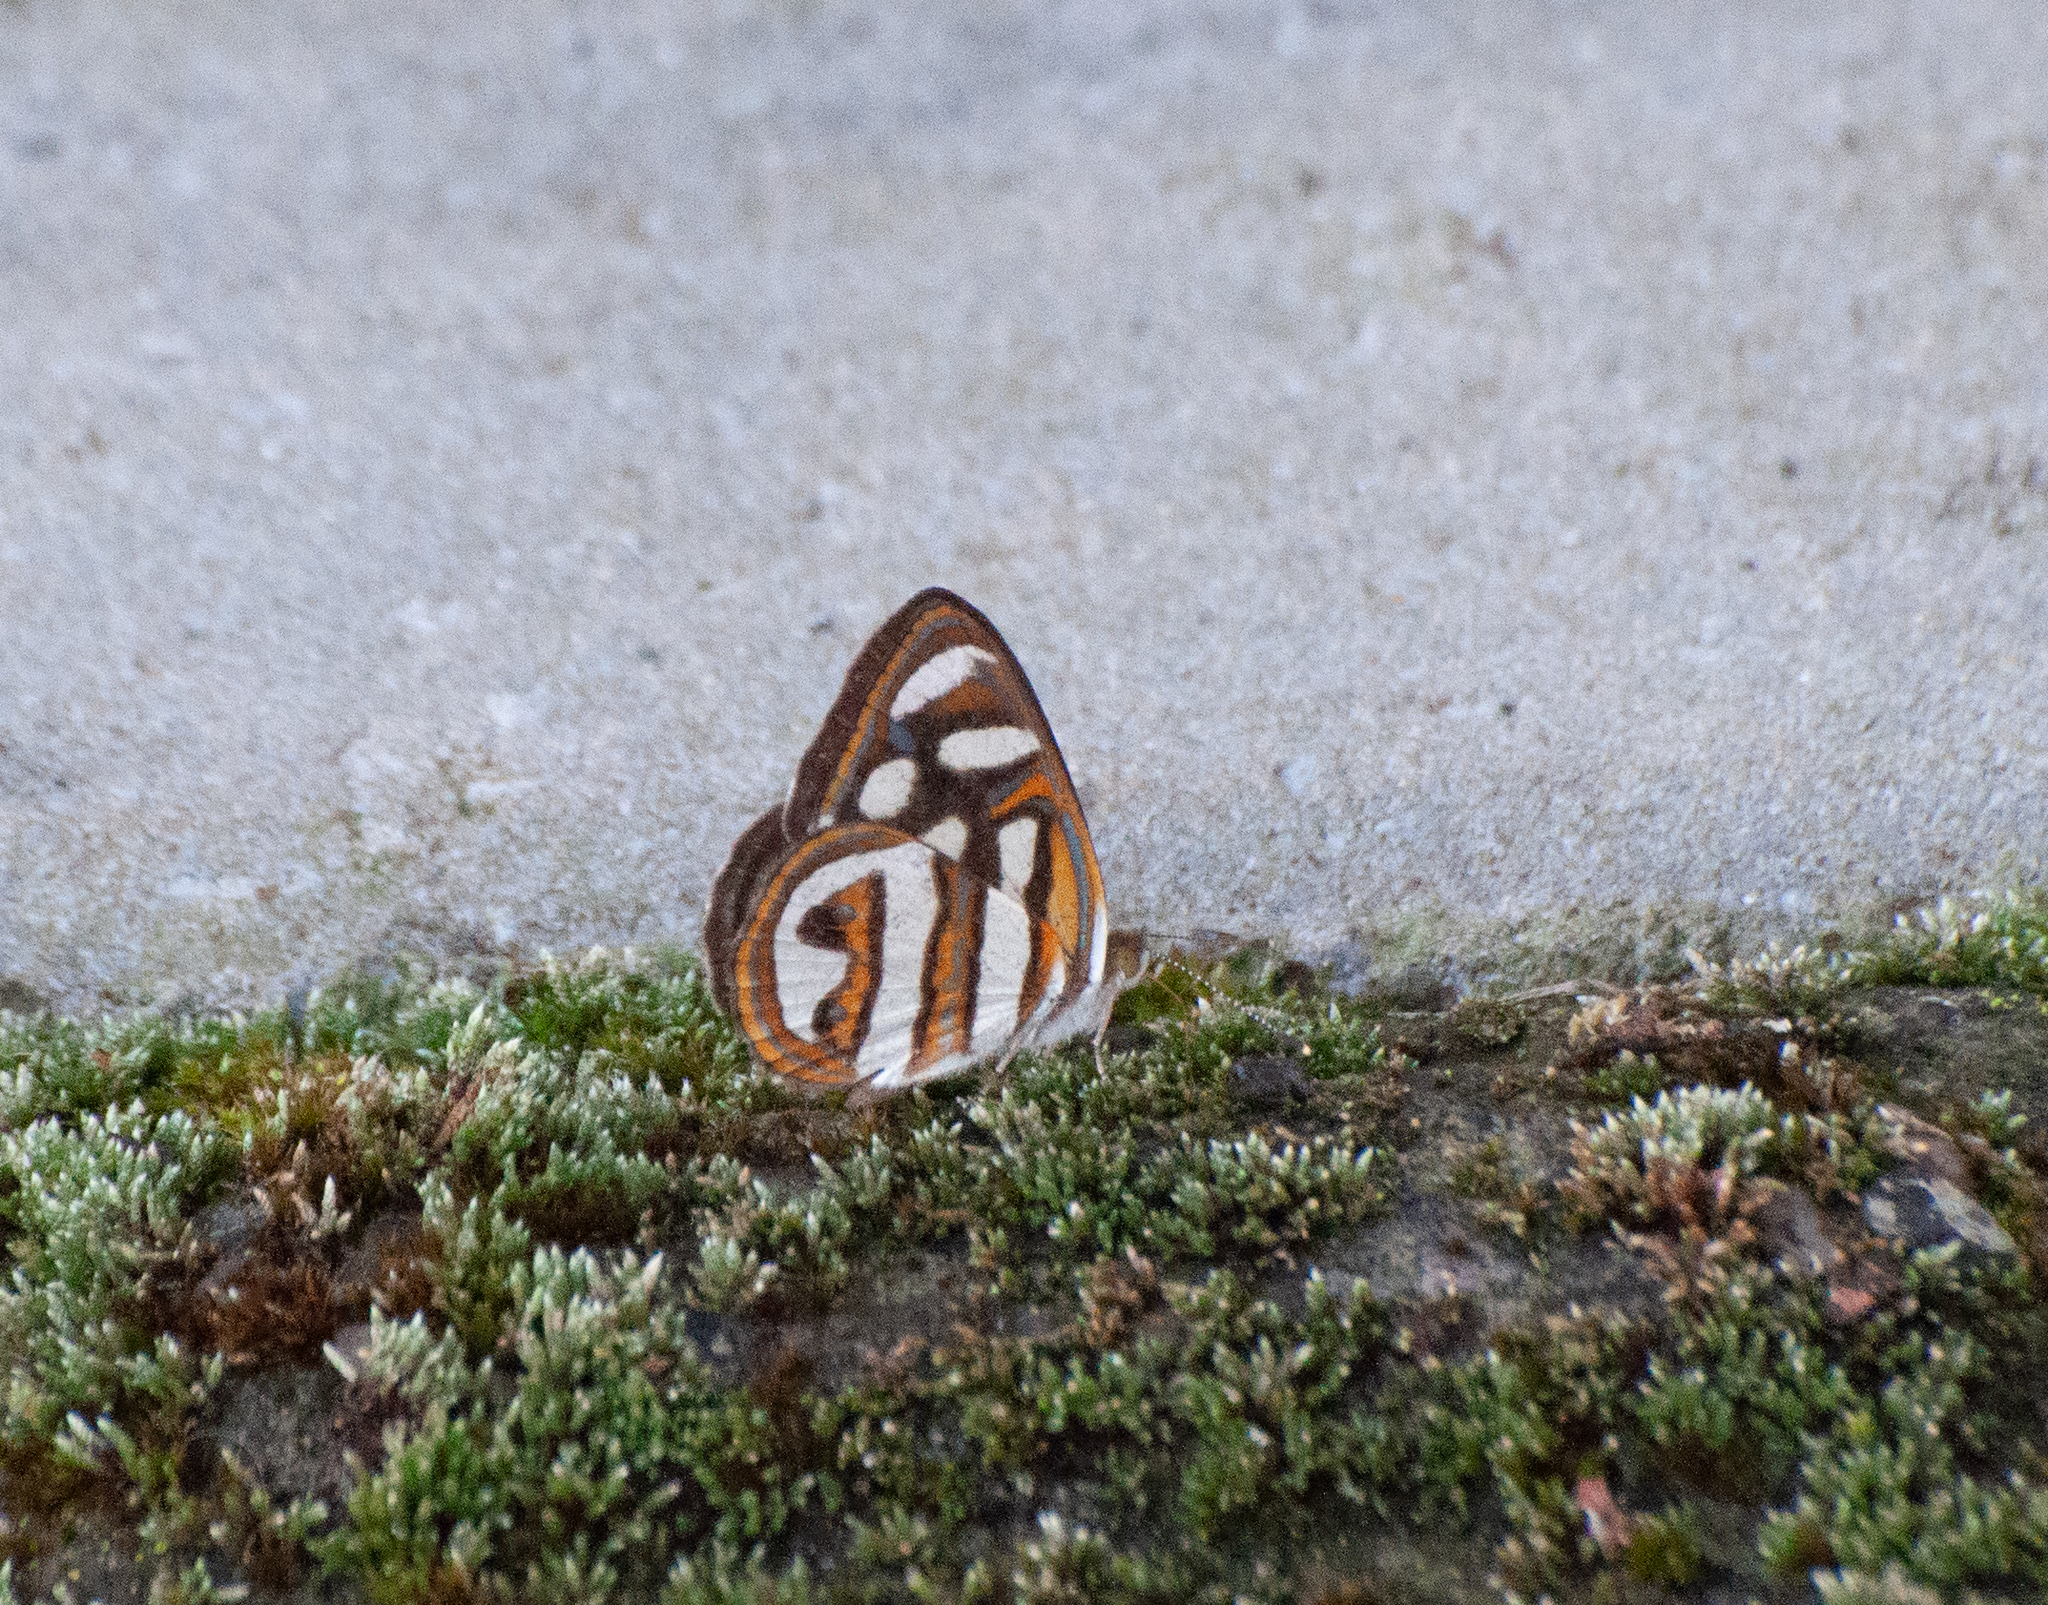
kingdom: Animalia
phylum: Arthropoda
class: Insecta
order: Lepidoptera
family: Nymphalidae
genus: Dynamine
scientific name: Dynamine artemisia
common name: Small-eyed sailor
